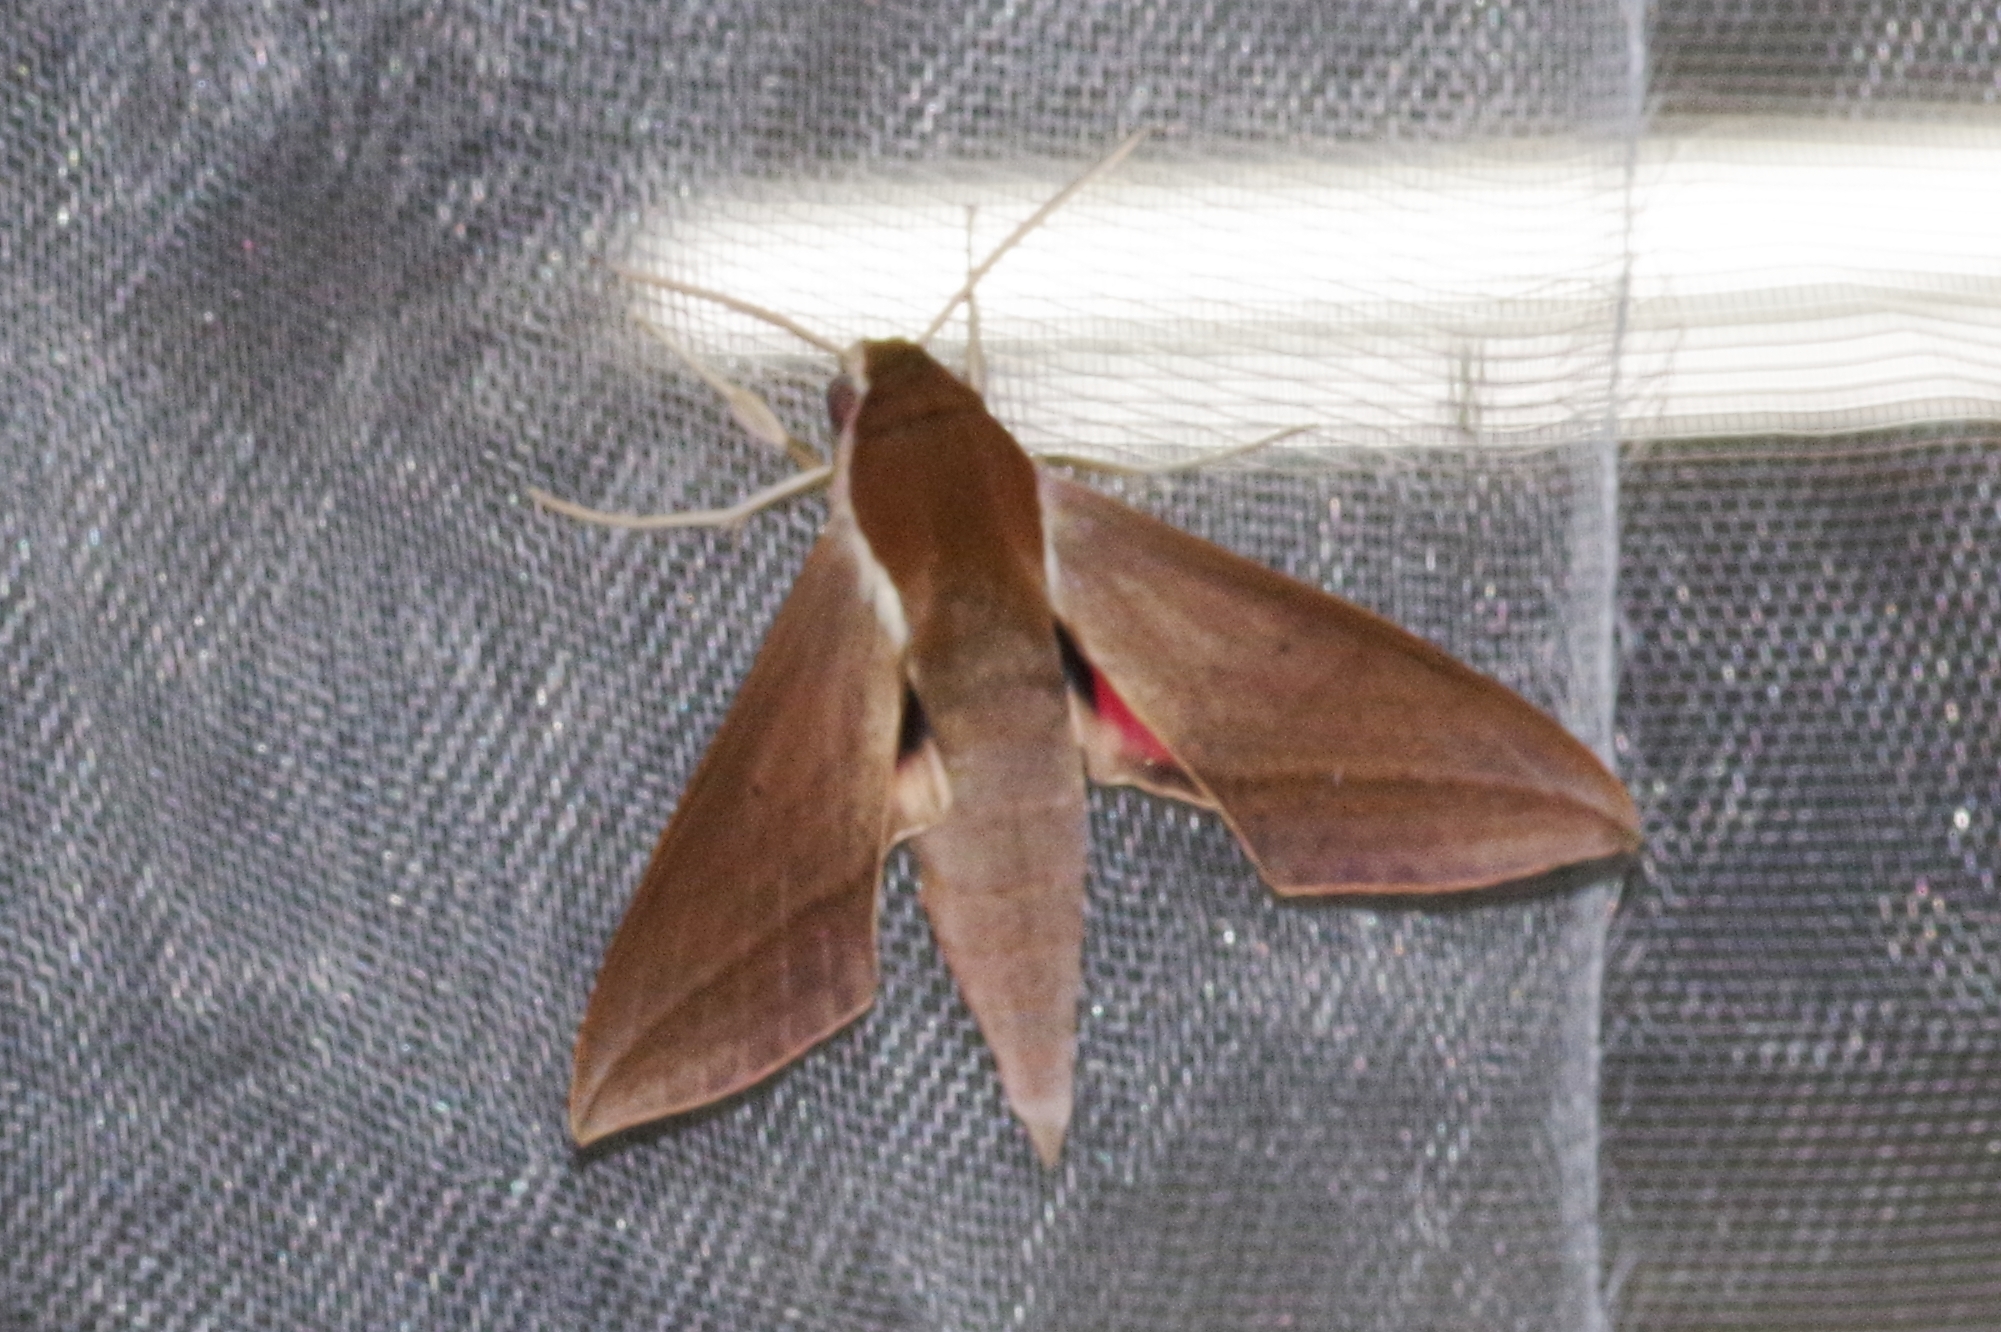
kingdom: Animalia
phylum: Arthropoda
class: Insecta
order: Lepidoptera
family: Sphingidae
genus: Theretra
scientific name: Theretra alecto
